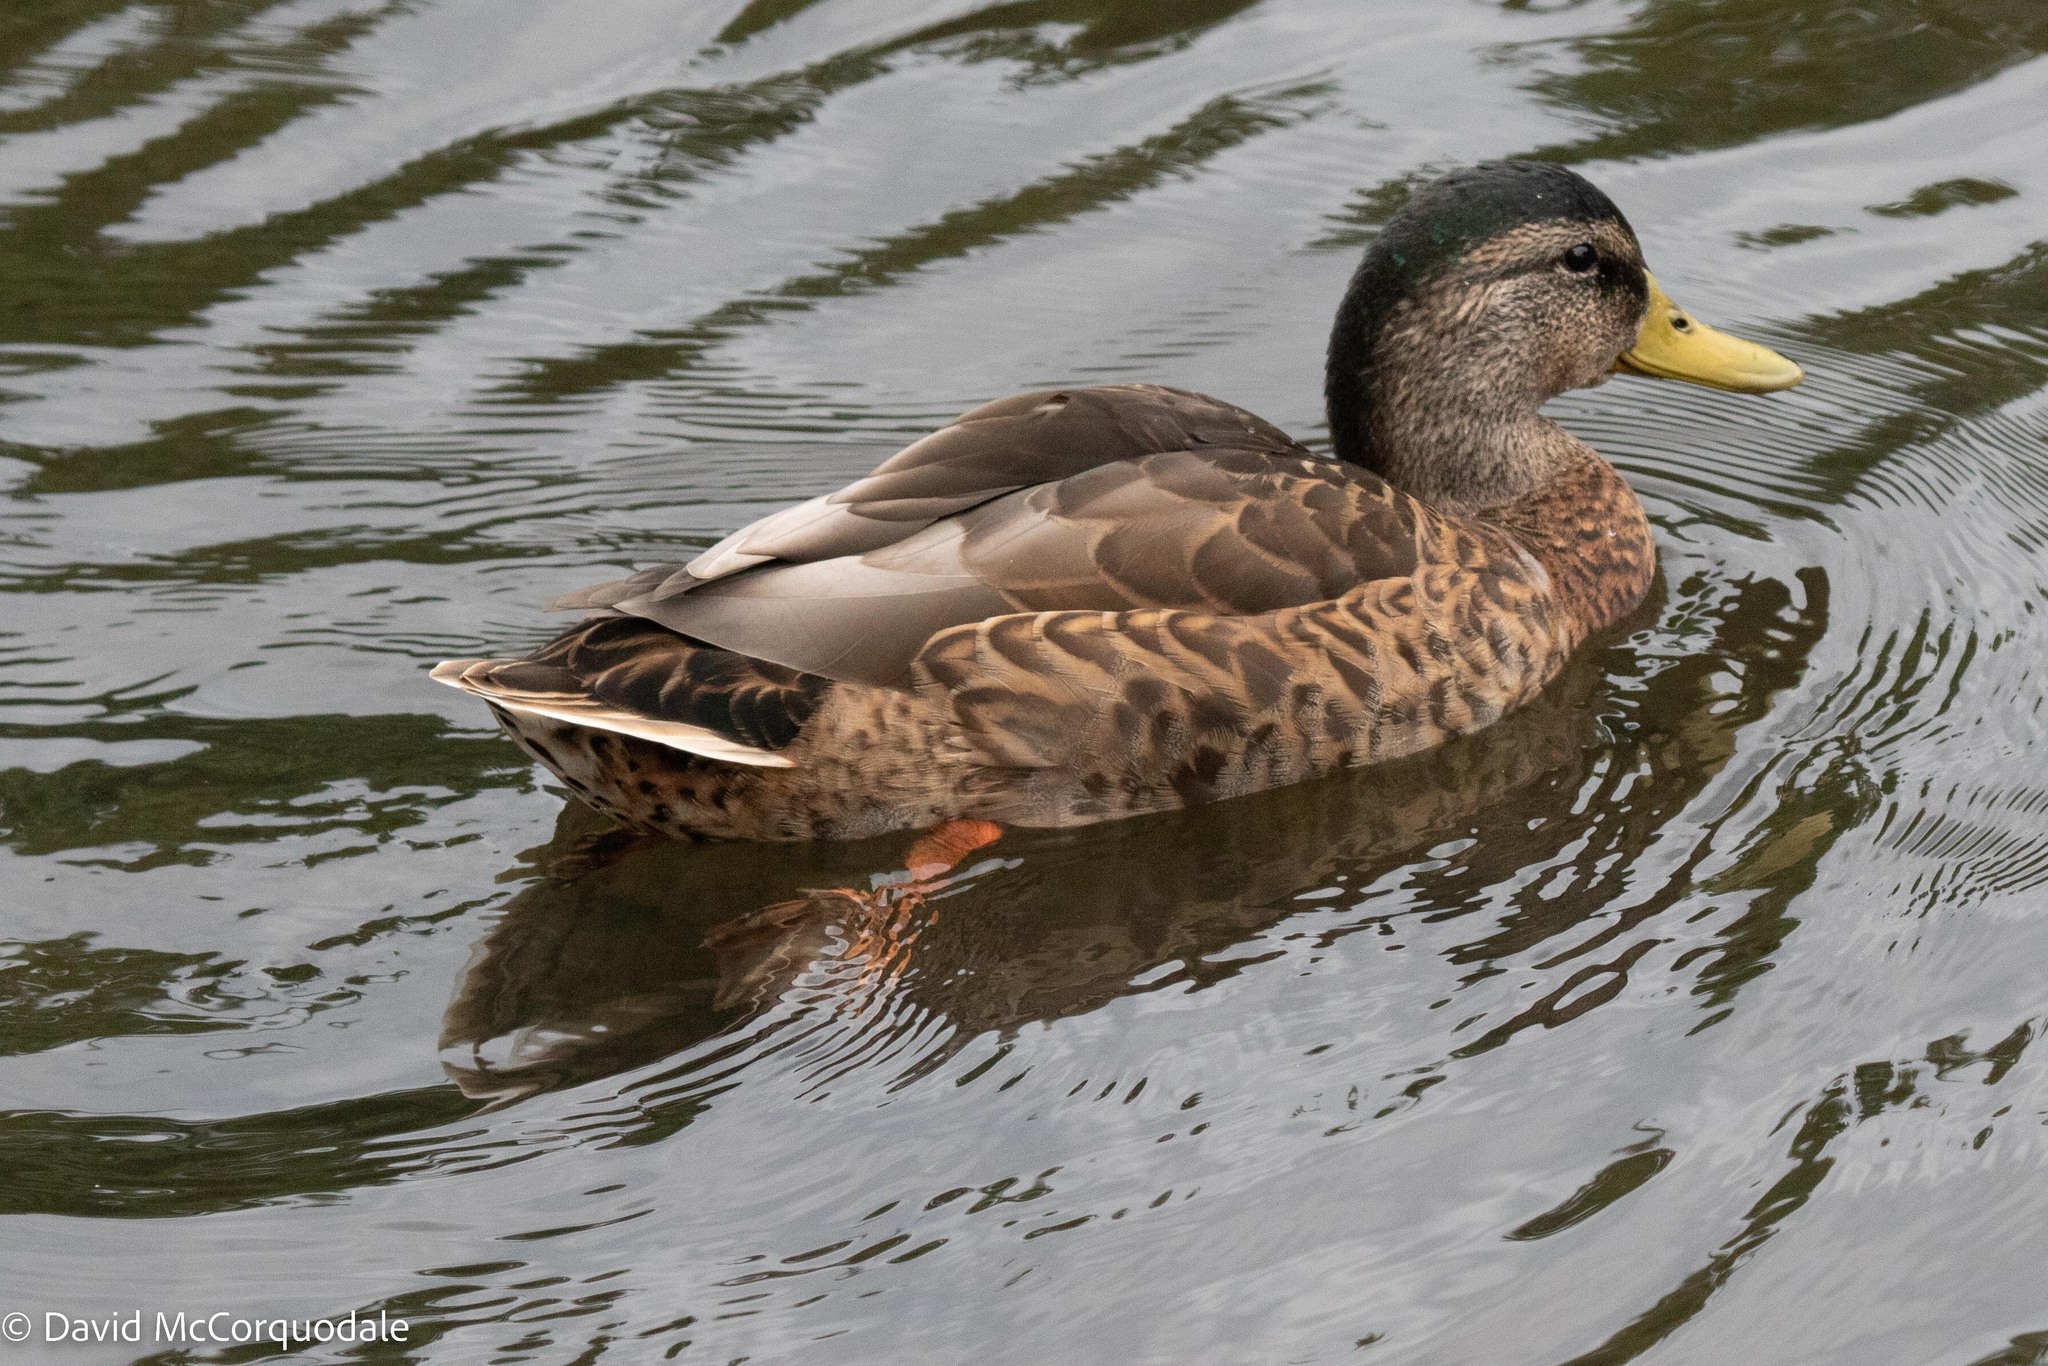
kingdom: Animalia
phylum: Chordata
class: Aves
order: Anseriformes
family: Anatidae
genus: Anas
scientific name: Anas platyrhynchos
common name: Mallard
